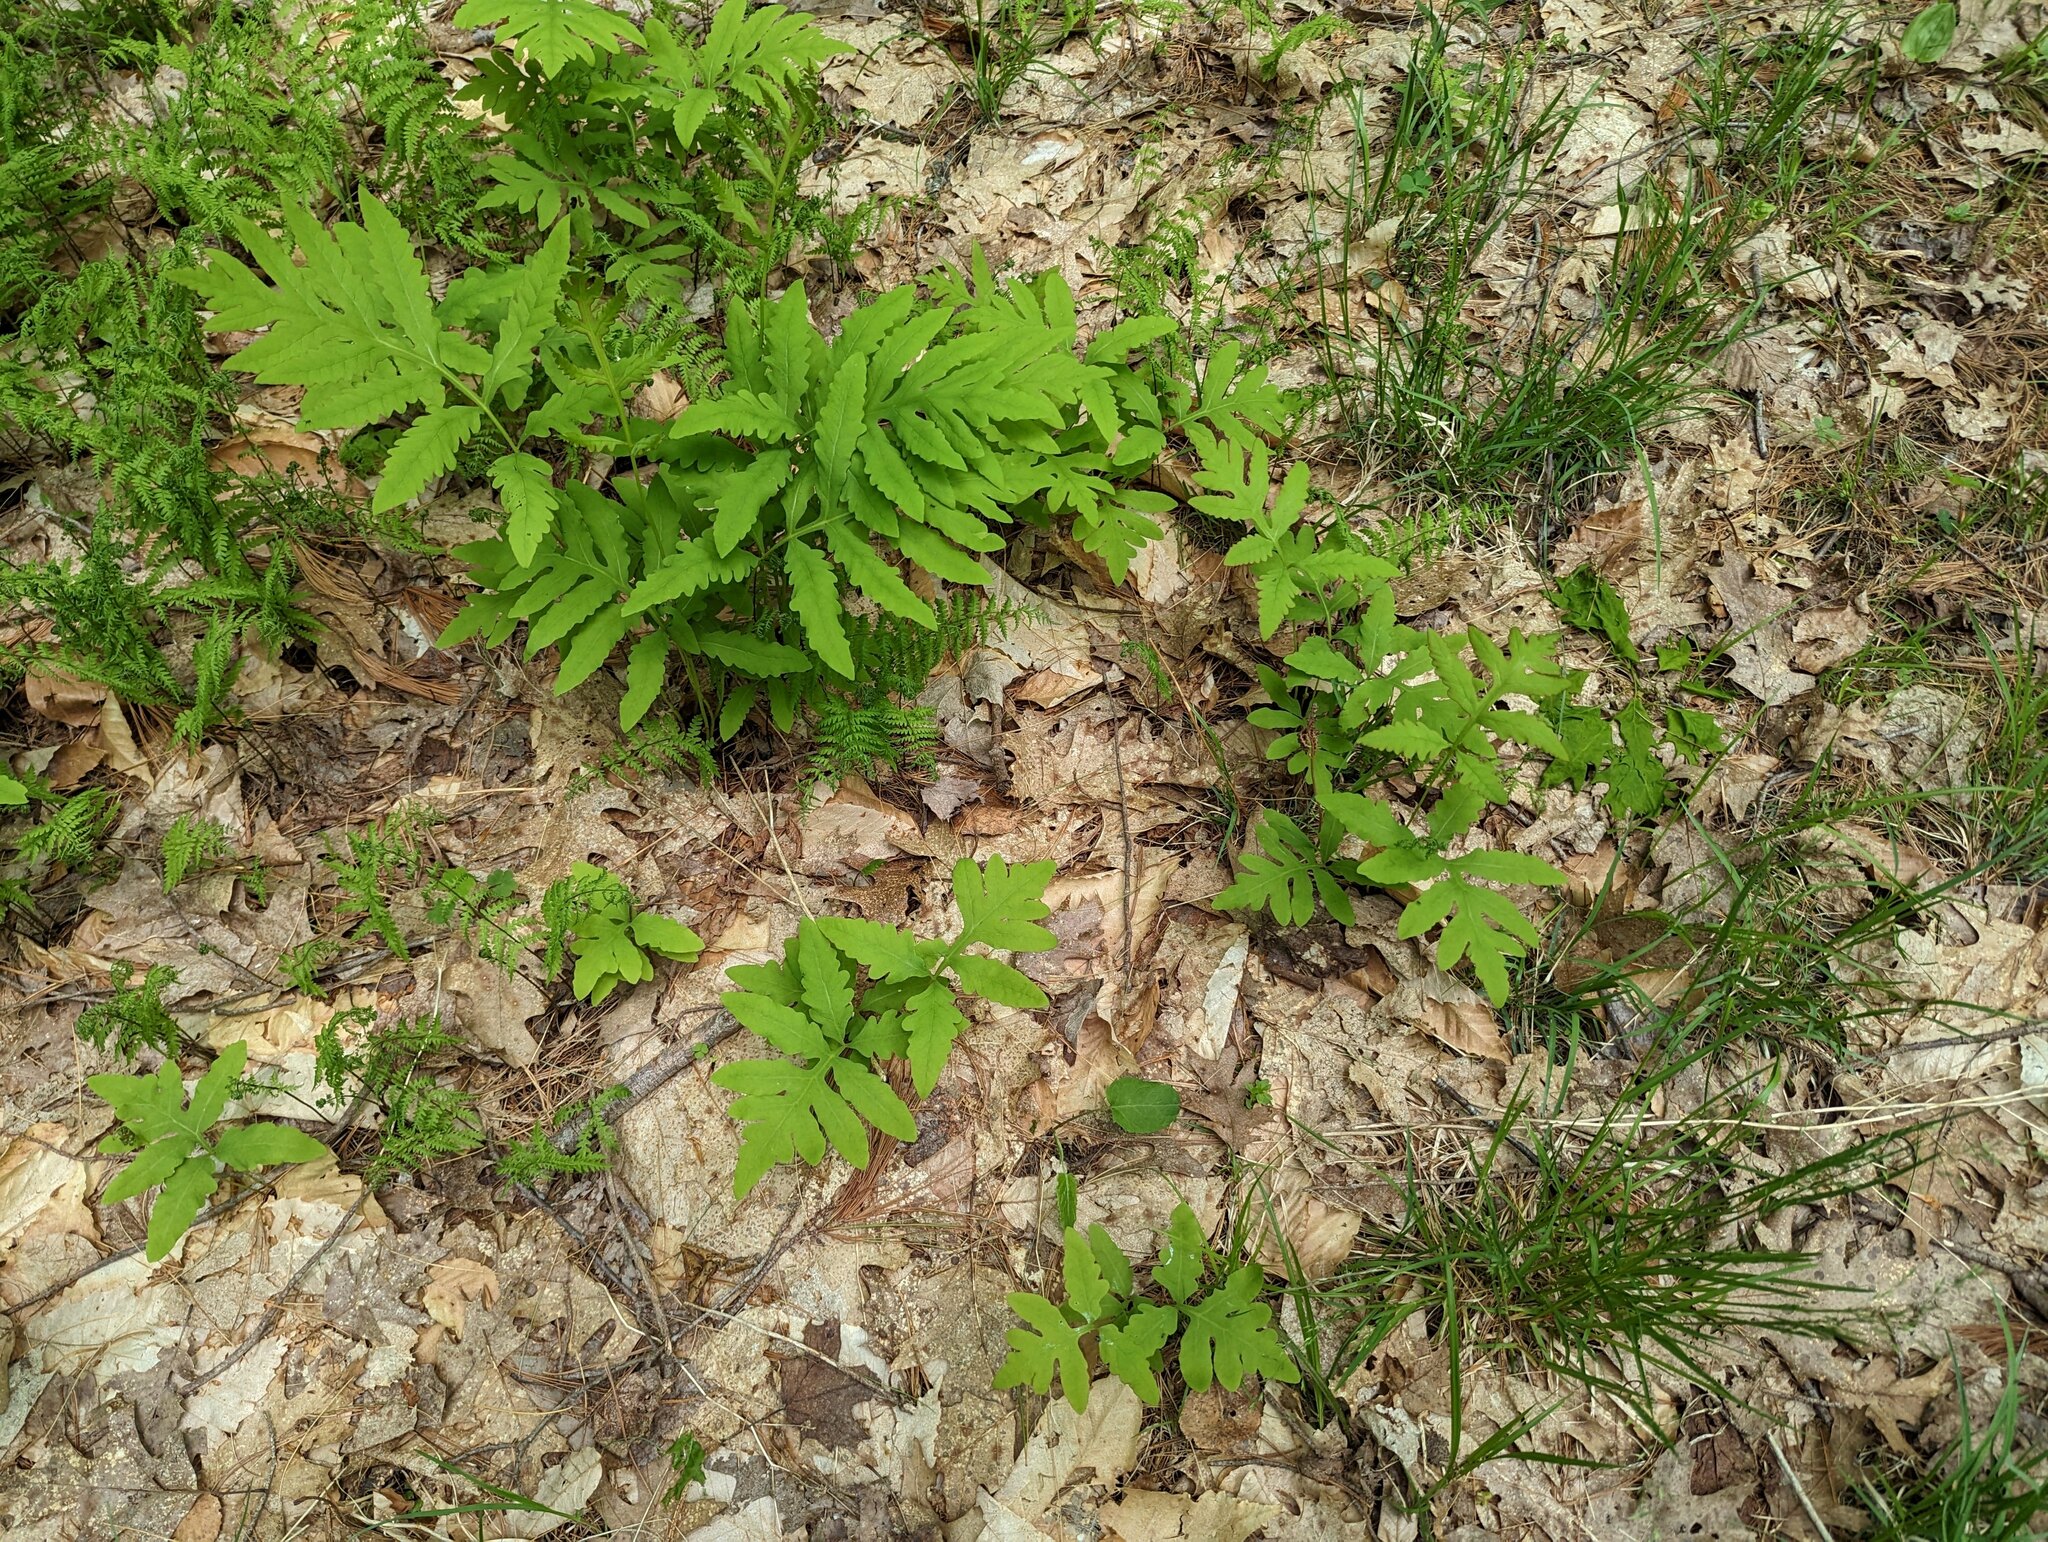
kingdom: Plantae
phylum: Tracheophyta
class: Polypodiopsida
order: Polypodiales
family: Onocleaceae
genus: Onoclea
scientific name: Onoclea sensibilis
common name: Sensitive fern
